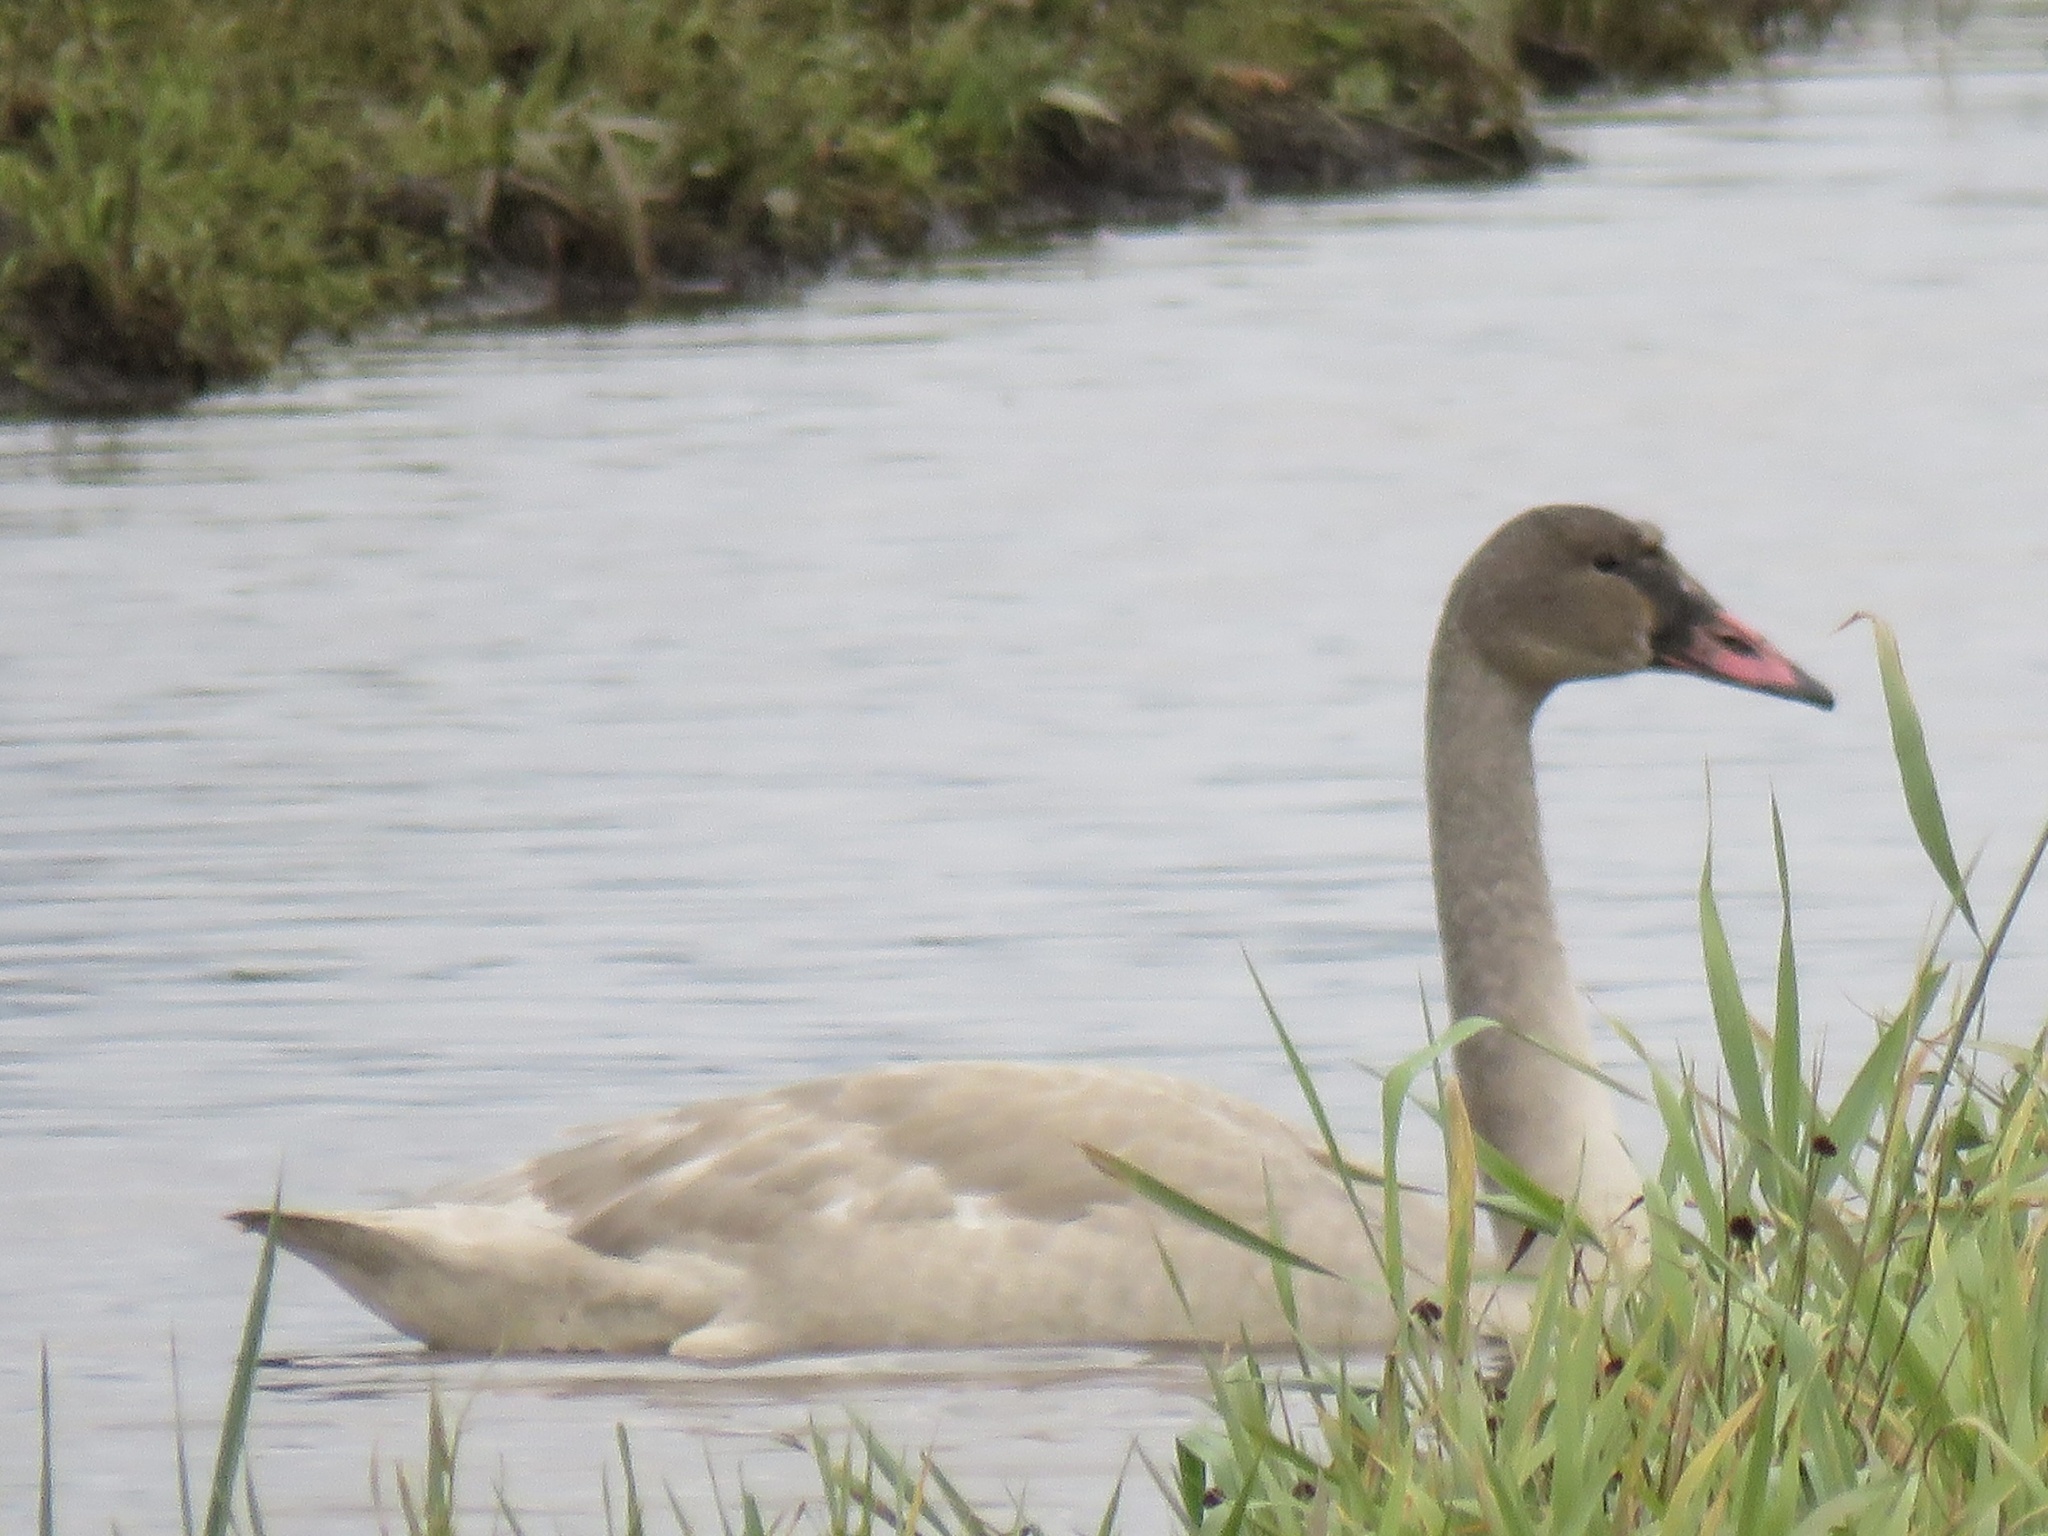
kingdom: Animalia
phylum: Chordata
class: Aves
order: Anseriformes
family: Anatidae
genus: Cygnus
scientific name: Cygnus buccinator
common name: Trumpeter swan
